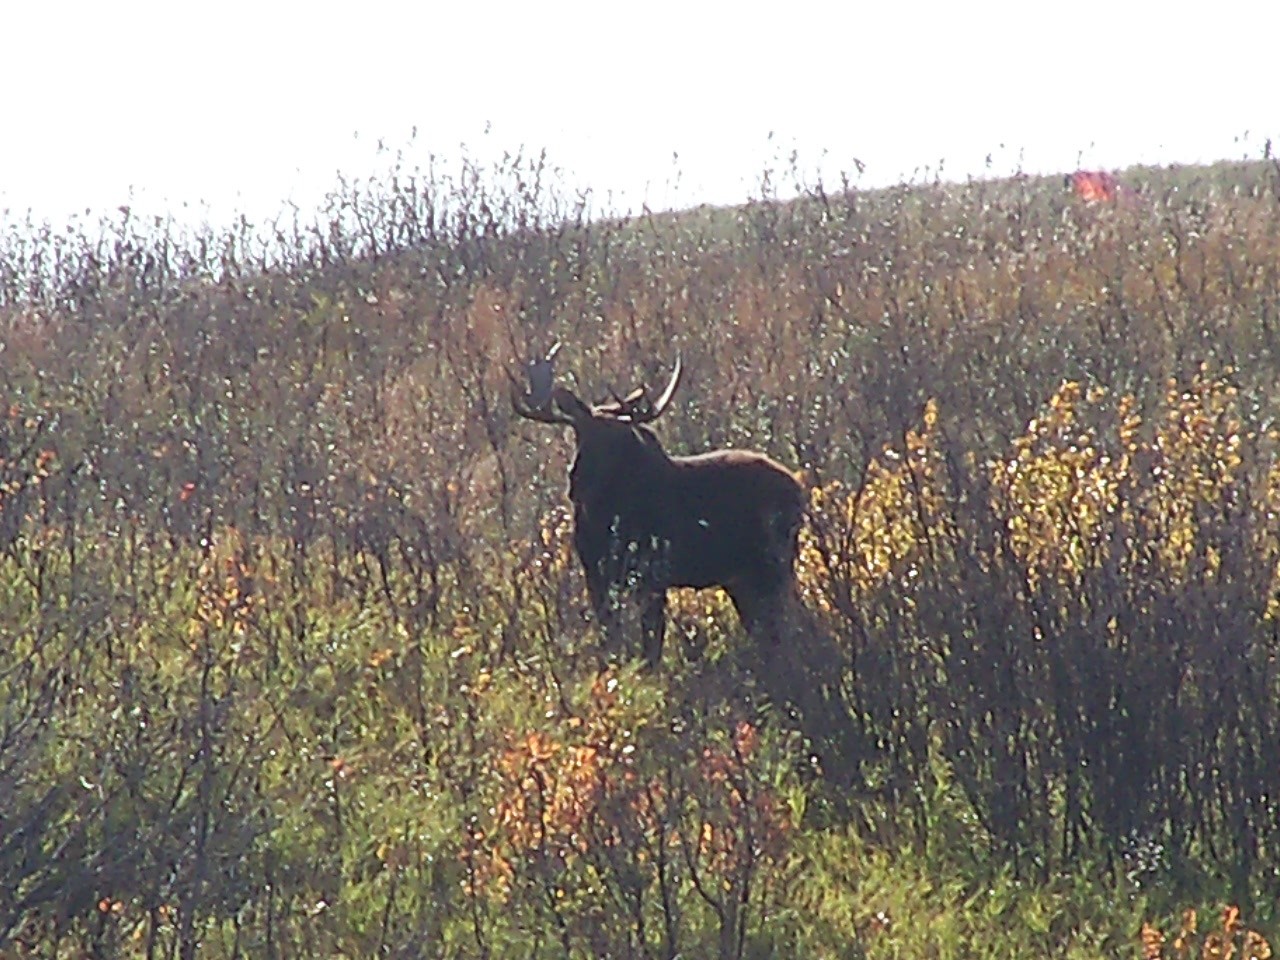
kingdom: Animalia
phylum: Chordata
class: Mammalia
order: Artiodactyla
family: Cervidae
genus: Alces
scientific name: Alces alces
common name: Moose
